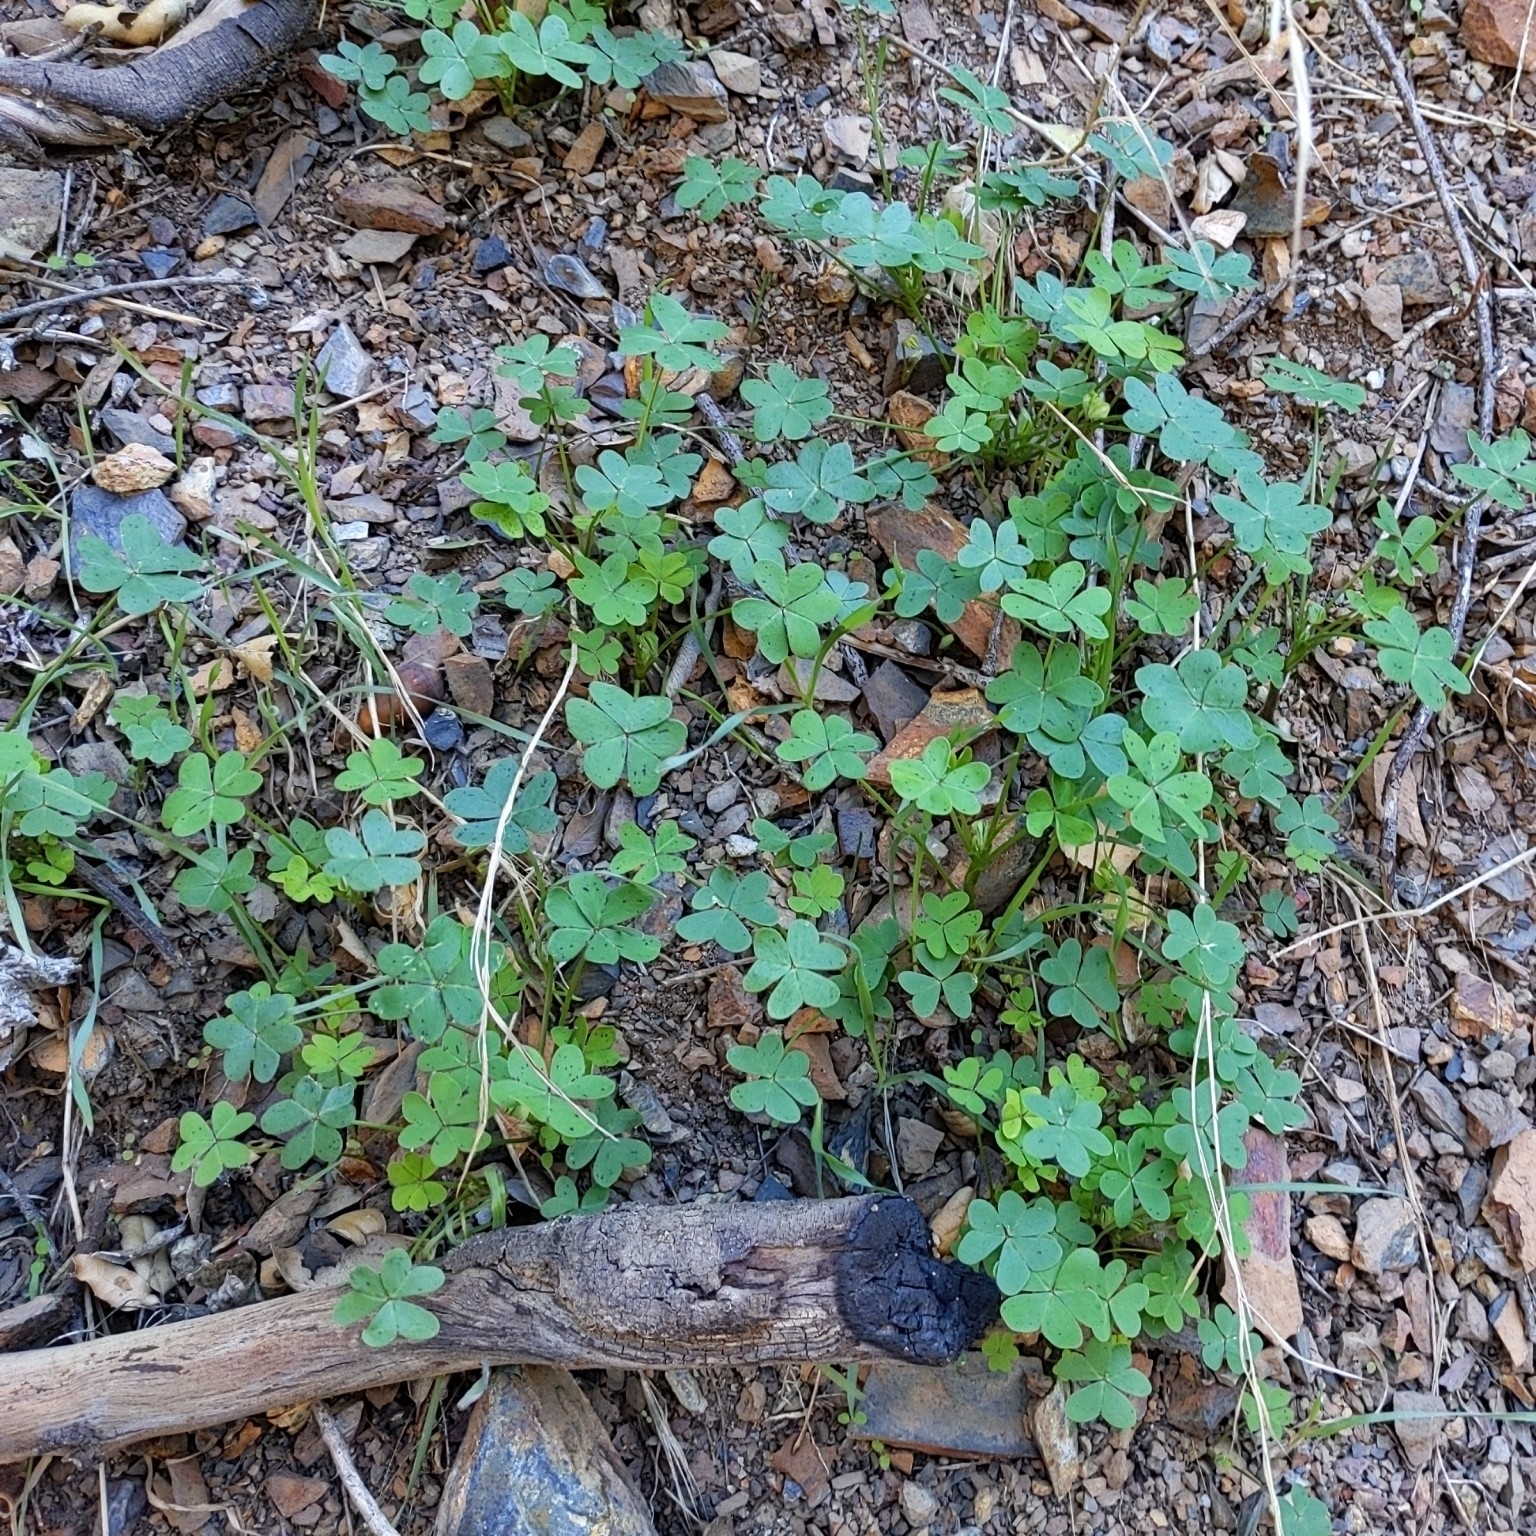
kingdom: Plantae
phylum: Tracheophyta
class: Magnoliopsida
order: Oxalidales
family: Oxalidaceae
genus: Oxalis
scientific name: Oxalis pes-caprae
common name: Bermuda-buttercup
